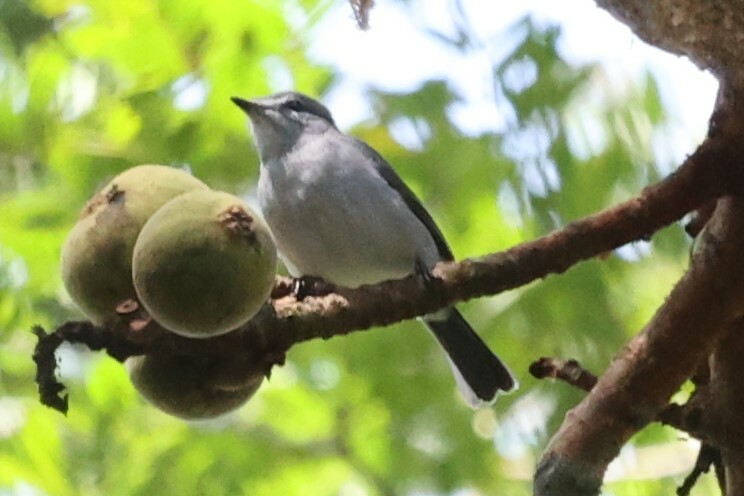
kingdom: Animalia
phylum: Chordata
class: Aves
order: Passeriformes
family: Muscicapidae
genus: Myioparus
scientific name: Myioparus plumbeus
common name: Grey tit-flycatcher
